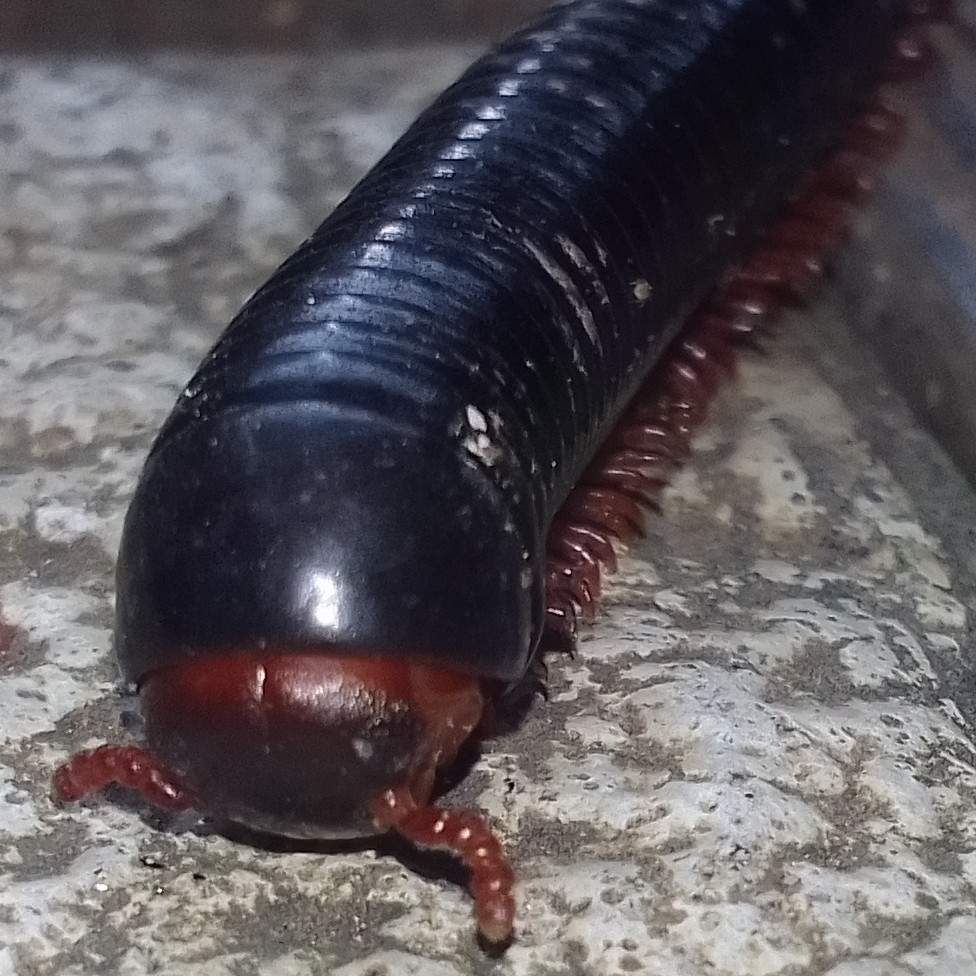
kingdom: Animalia
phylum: Arthropoda
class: Diplopoda
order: Spirostreptida
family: Harpagophoridae
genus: Phyllogonostreptus
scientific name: Phyllogonostreptus nigrolabiatus
